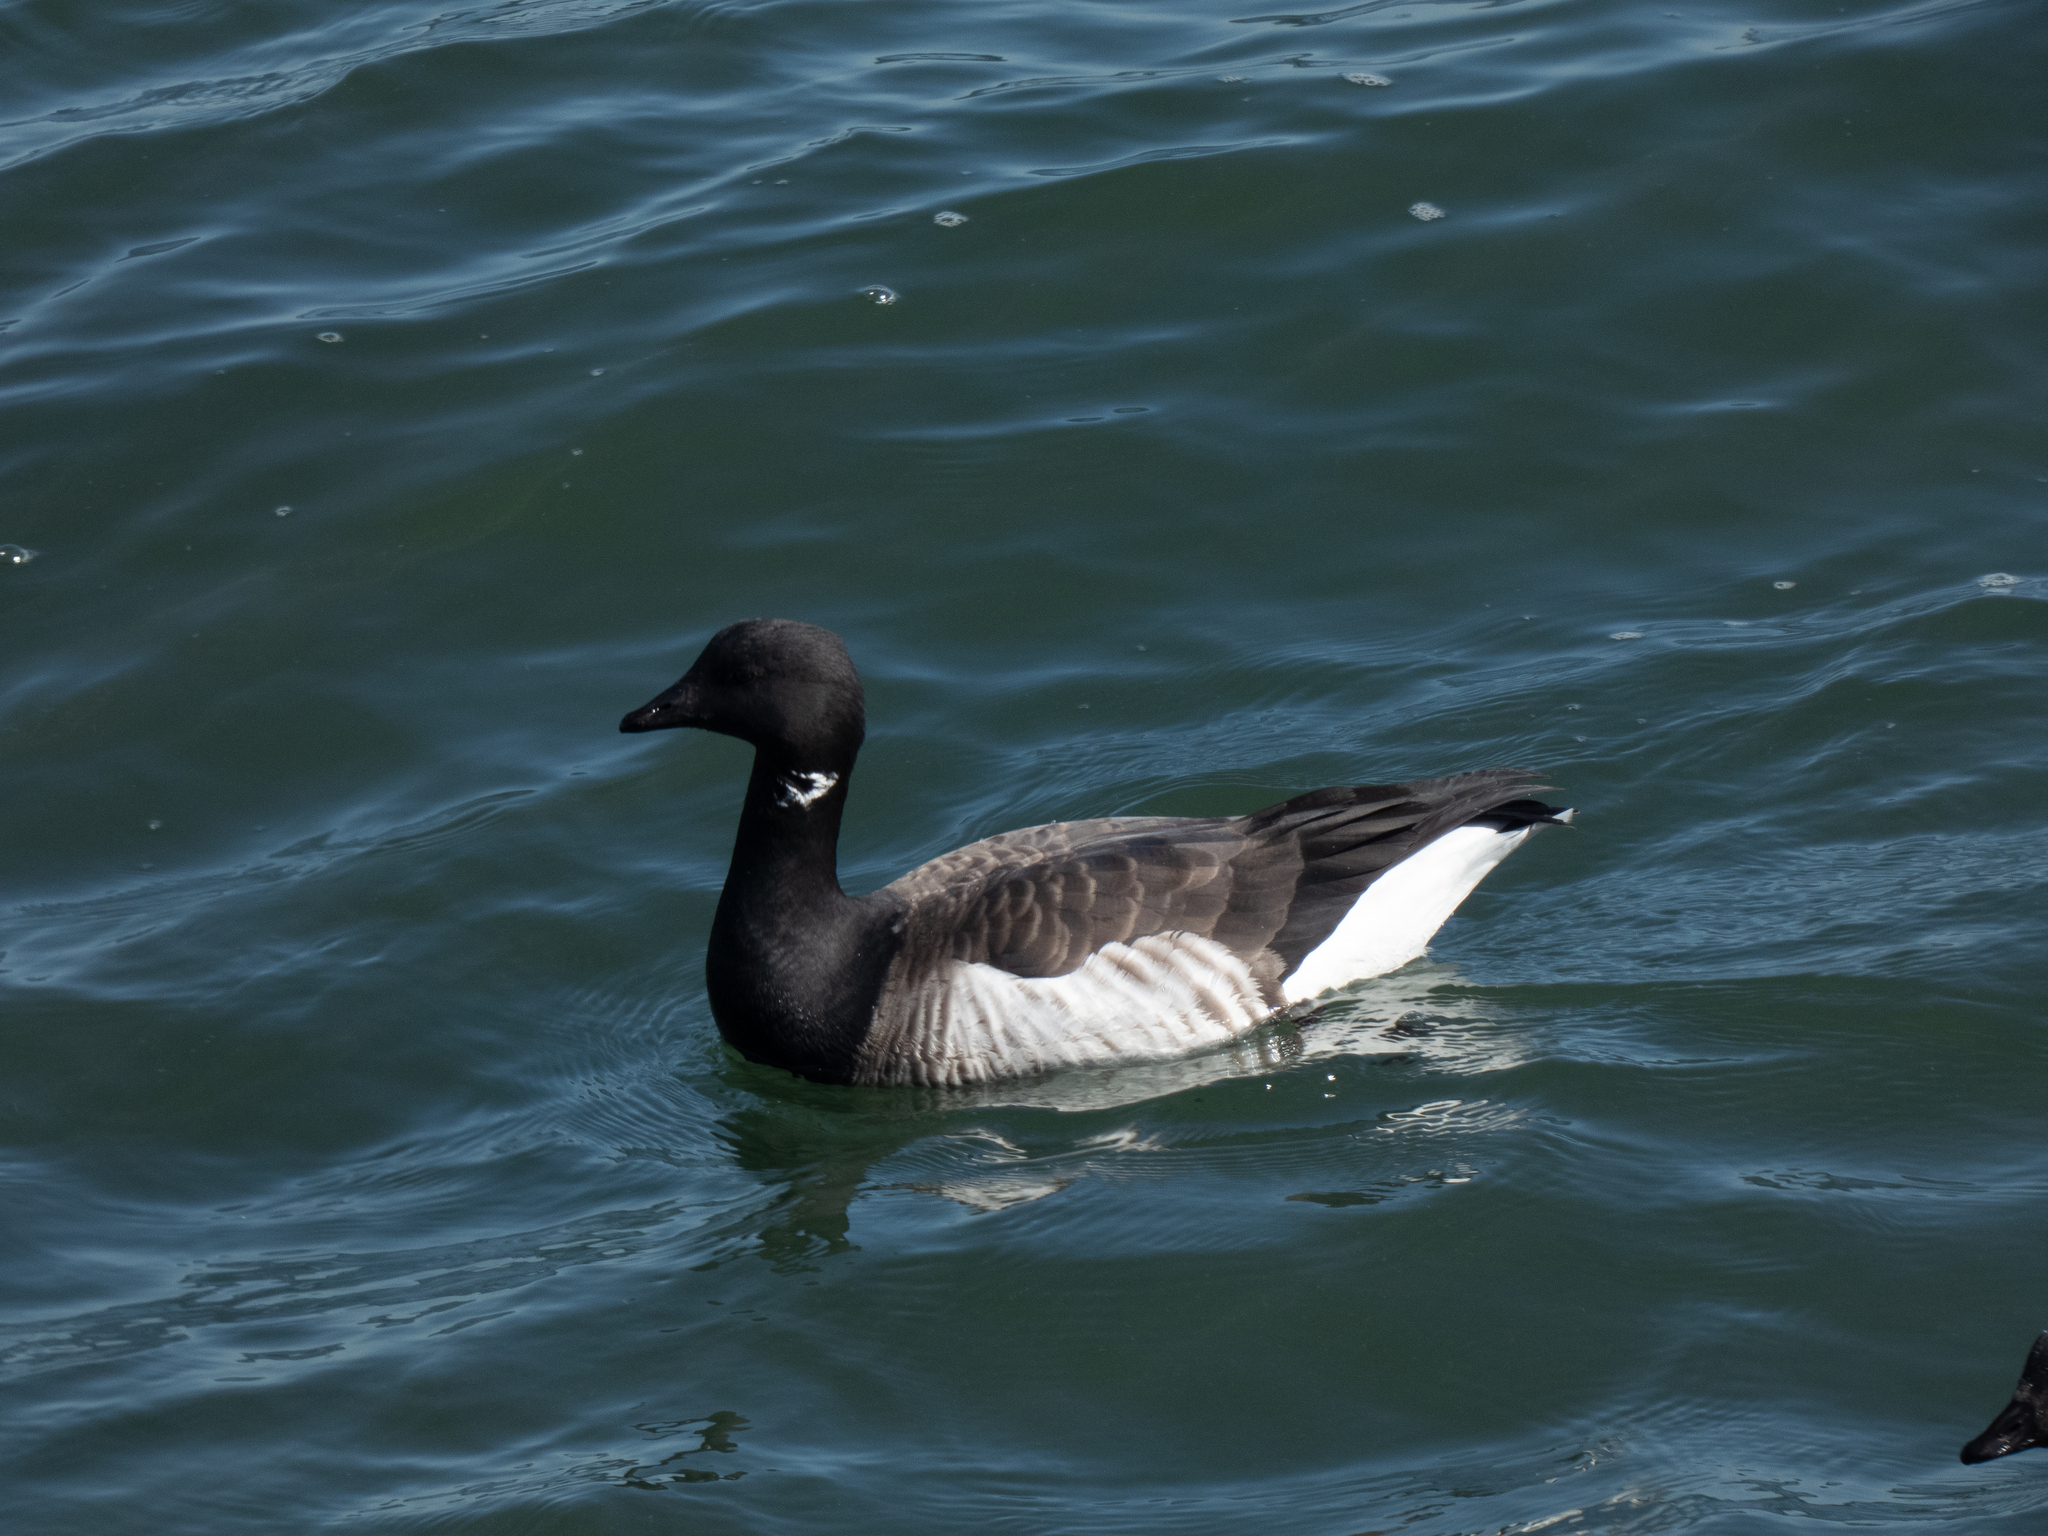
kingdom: Animalia
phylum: Chordata
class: Aves
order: Anseriformes
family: Anatidae
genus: Branta
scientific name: Branta bernicla
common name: Brant goose
